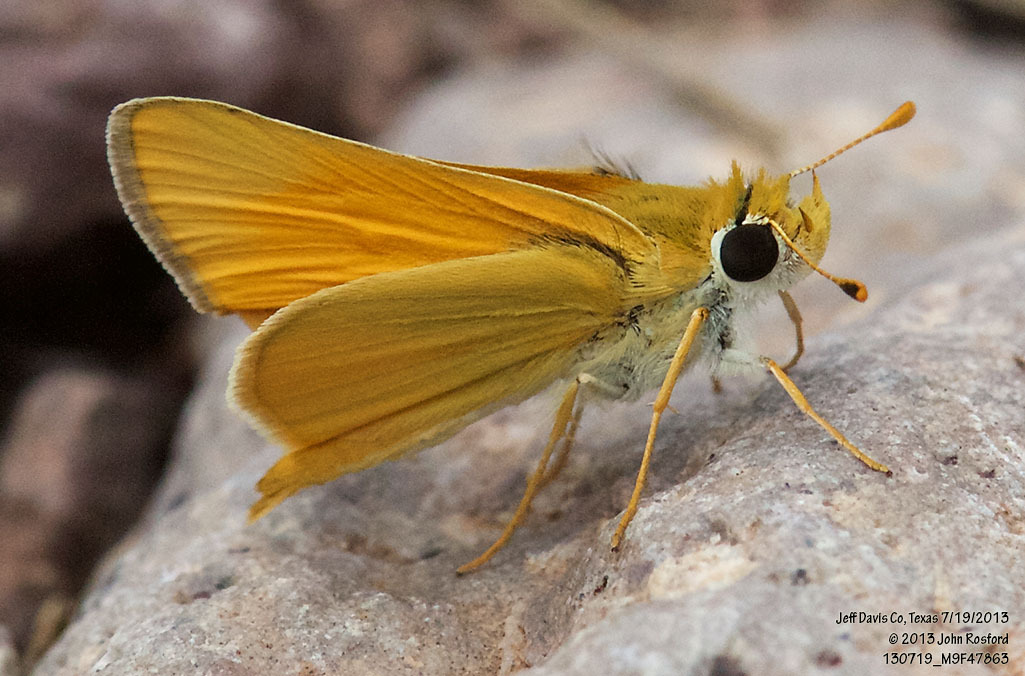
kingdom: Animalia
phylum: Arthropoda
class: Insecta
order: Lepidoptera
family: Hesperiidae
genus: Copaeodes
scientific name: Copaeodes aurantiaca
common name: Orange skipperling
